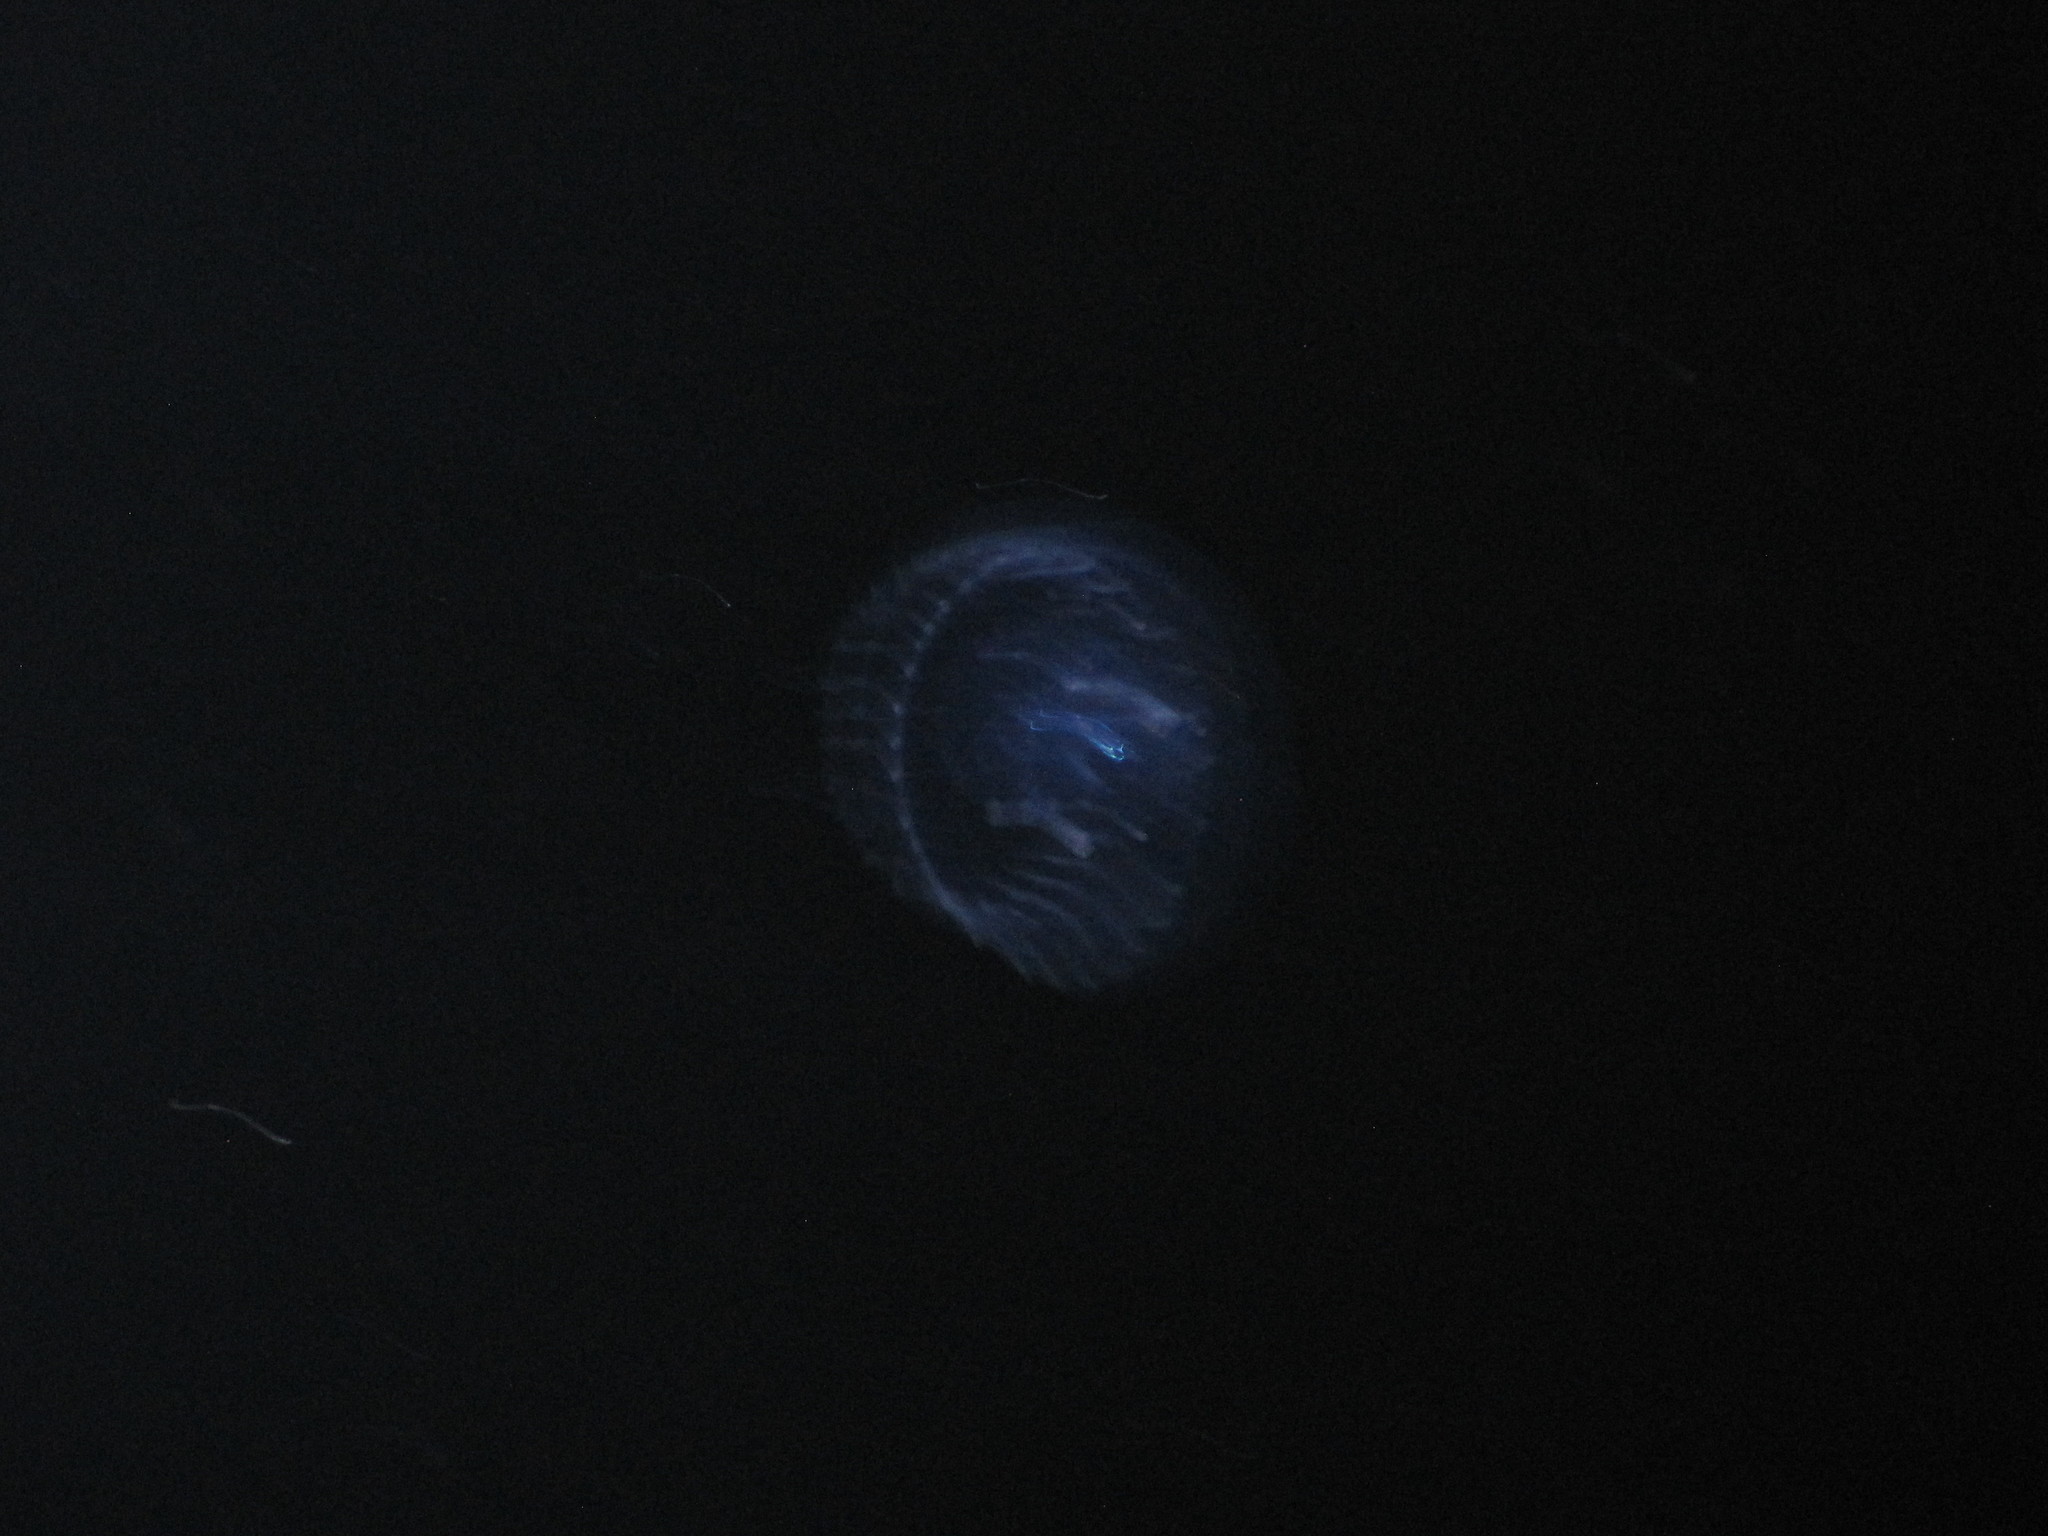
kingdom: Animalia
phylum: Cnidaria
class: Hydrozoa
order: Leptothecata
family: Aequoreidae
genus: Aequorea
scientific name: Aequorea victoria
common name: Water jellyfish
